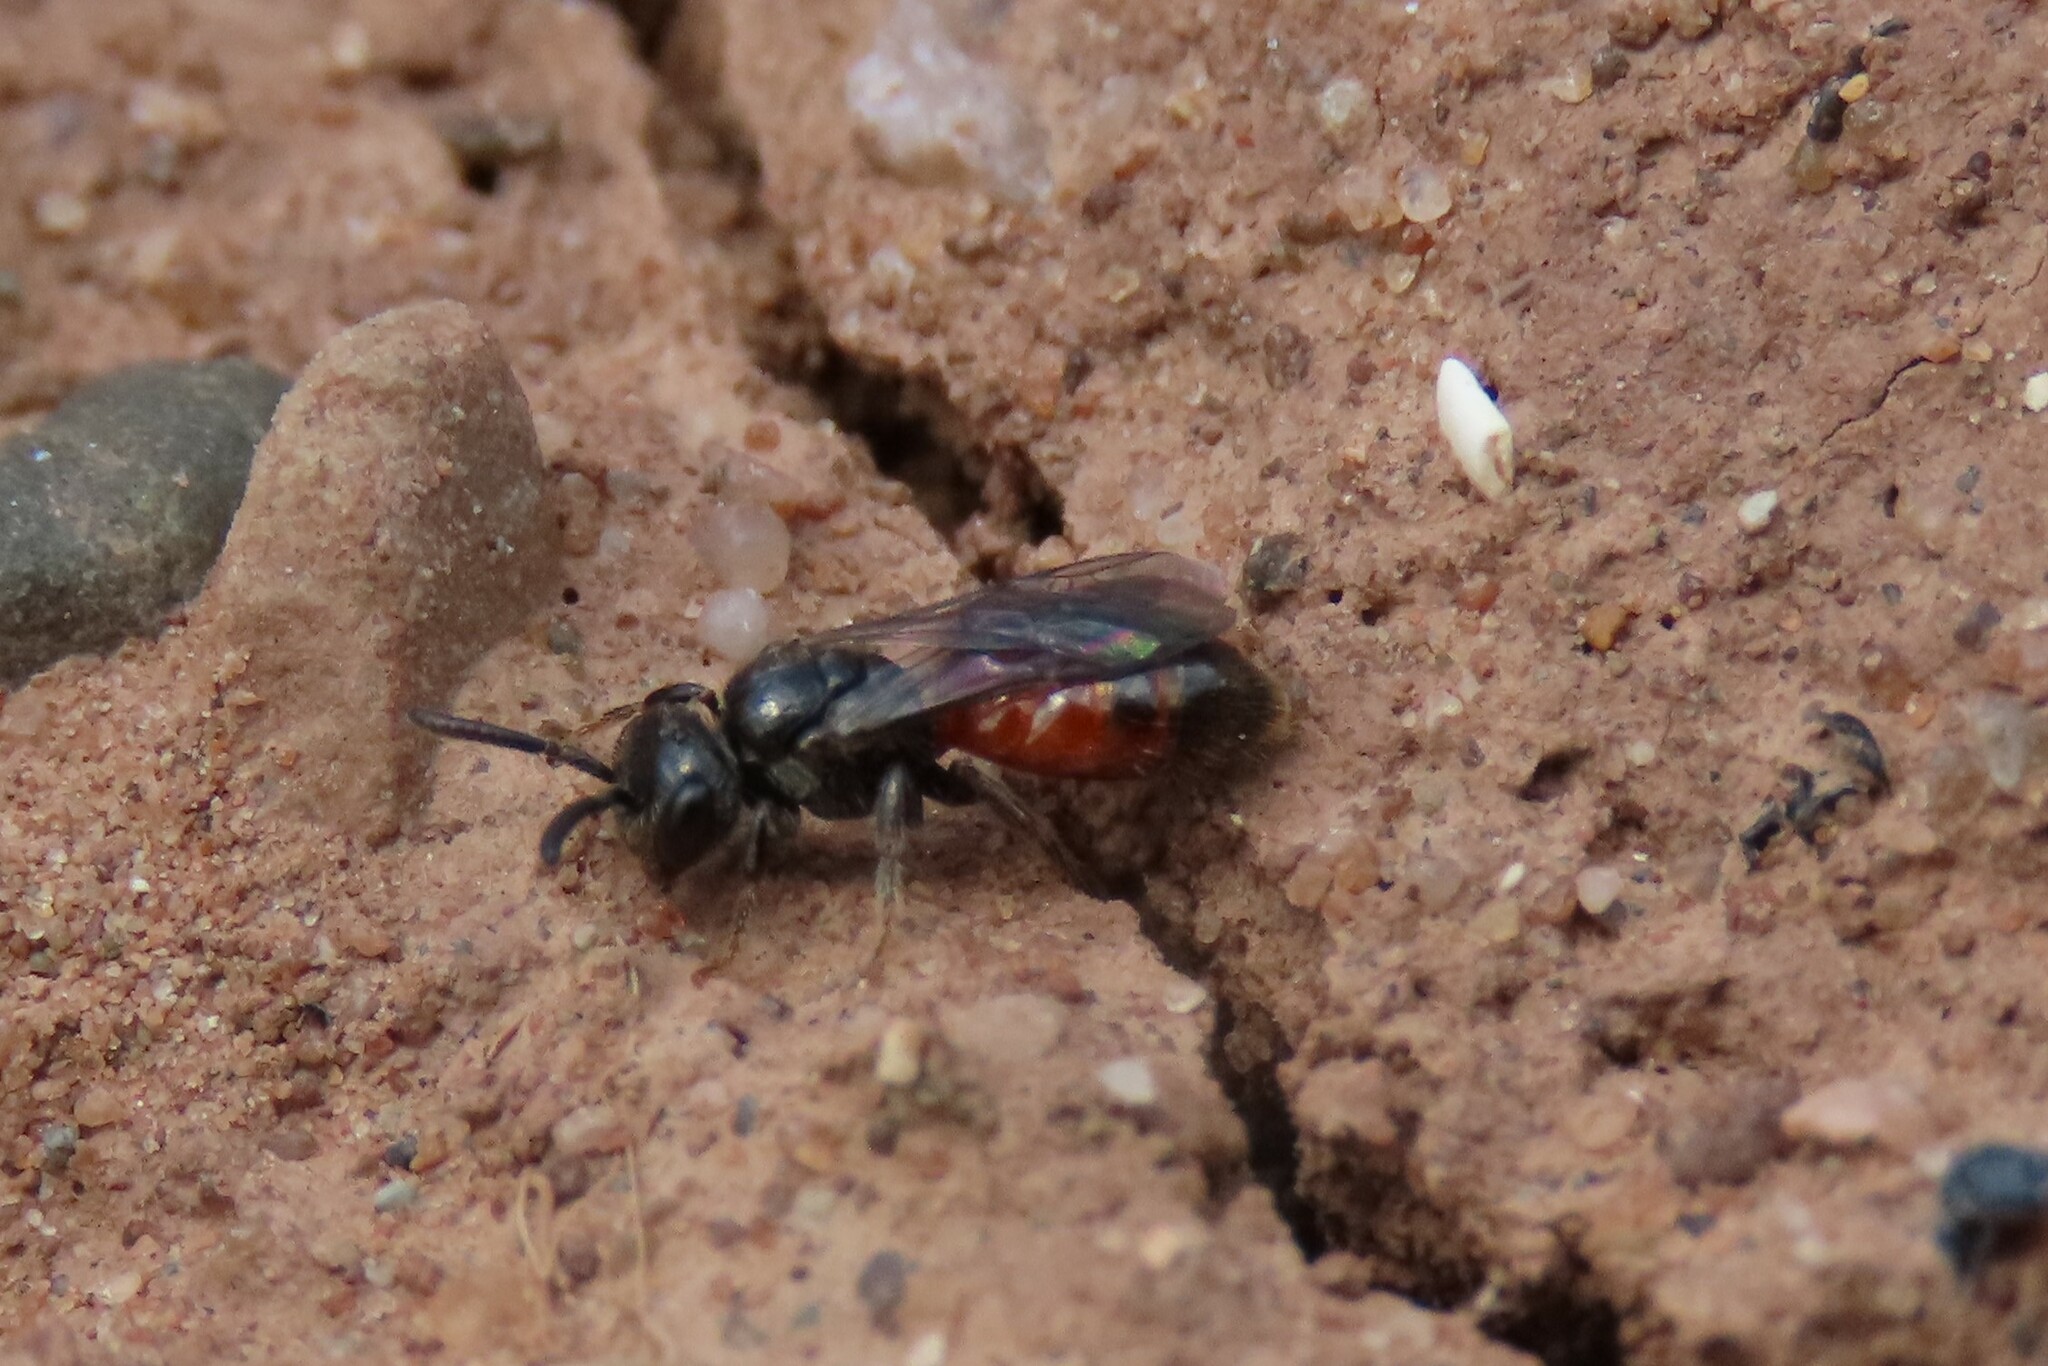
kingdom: Animalia
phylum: Arthropoda
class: Insecta
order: Hymenoptera
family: Halictidae
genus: Sphecodes
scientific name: Sphecodes niger
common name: Dark blood bee
